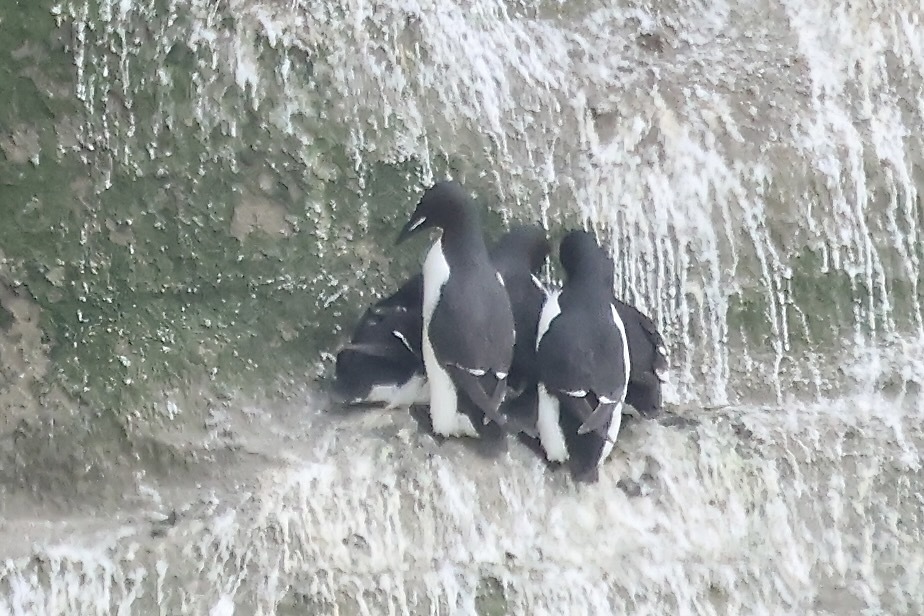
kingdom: Animalia
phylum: Chordata
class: Aves
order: Charadriiformes
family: Alcidae
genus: Uria
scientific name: Uria lomvia
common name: Thick-billed murre
